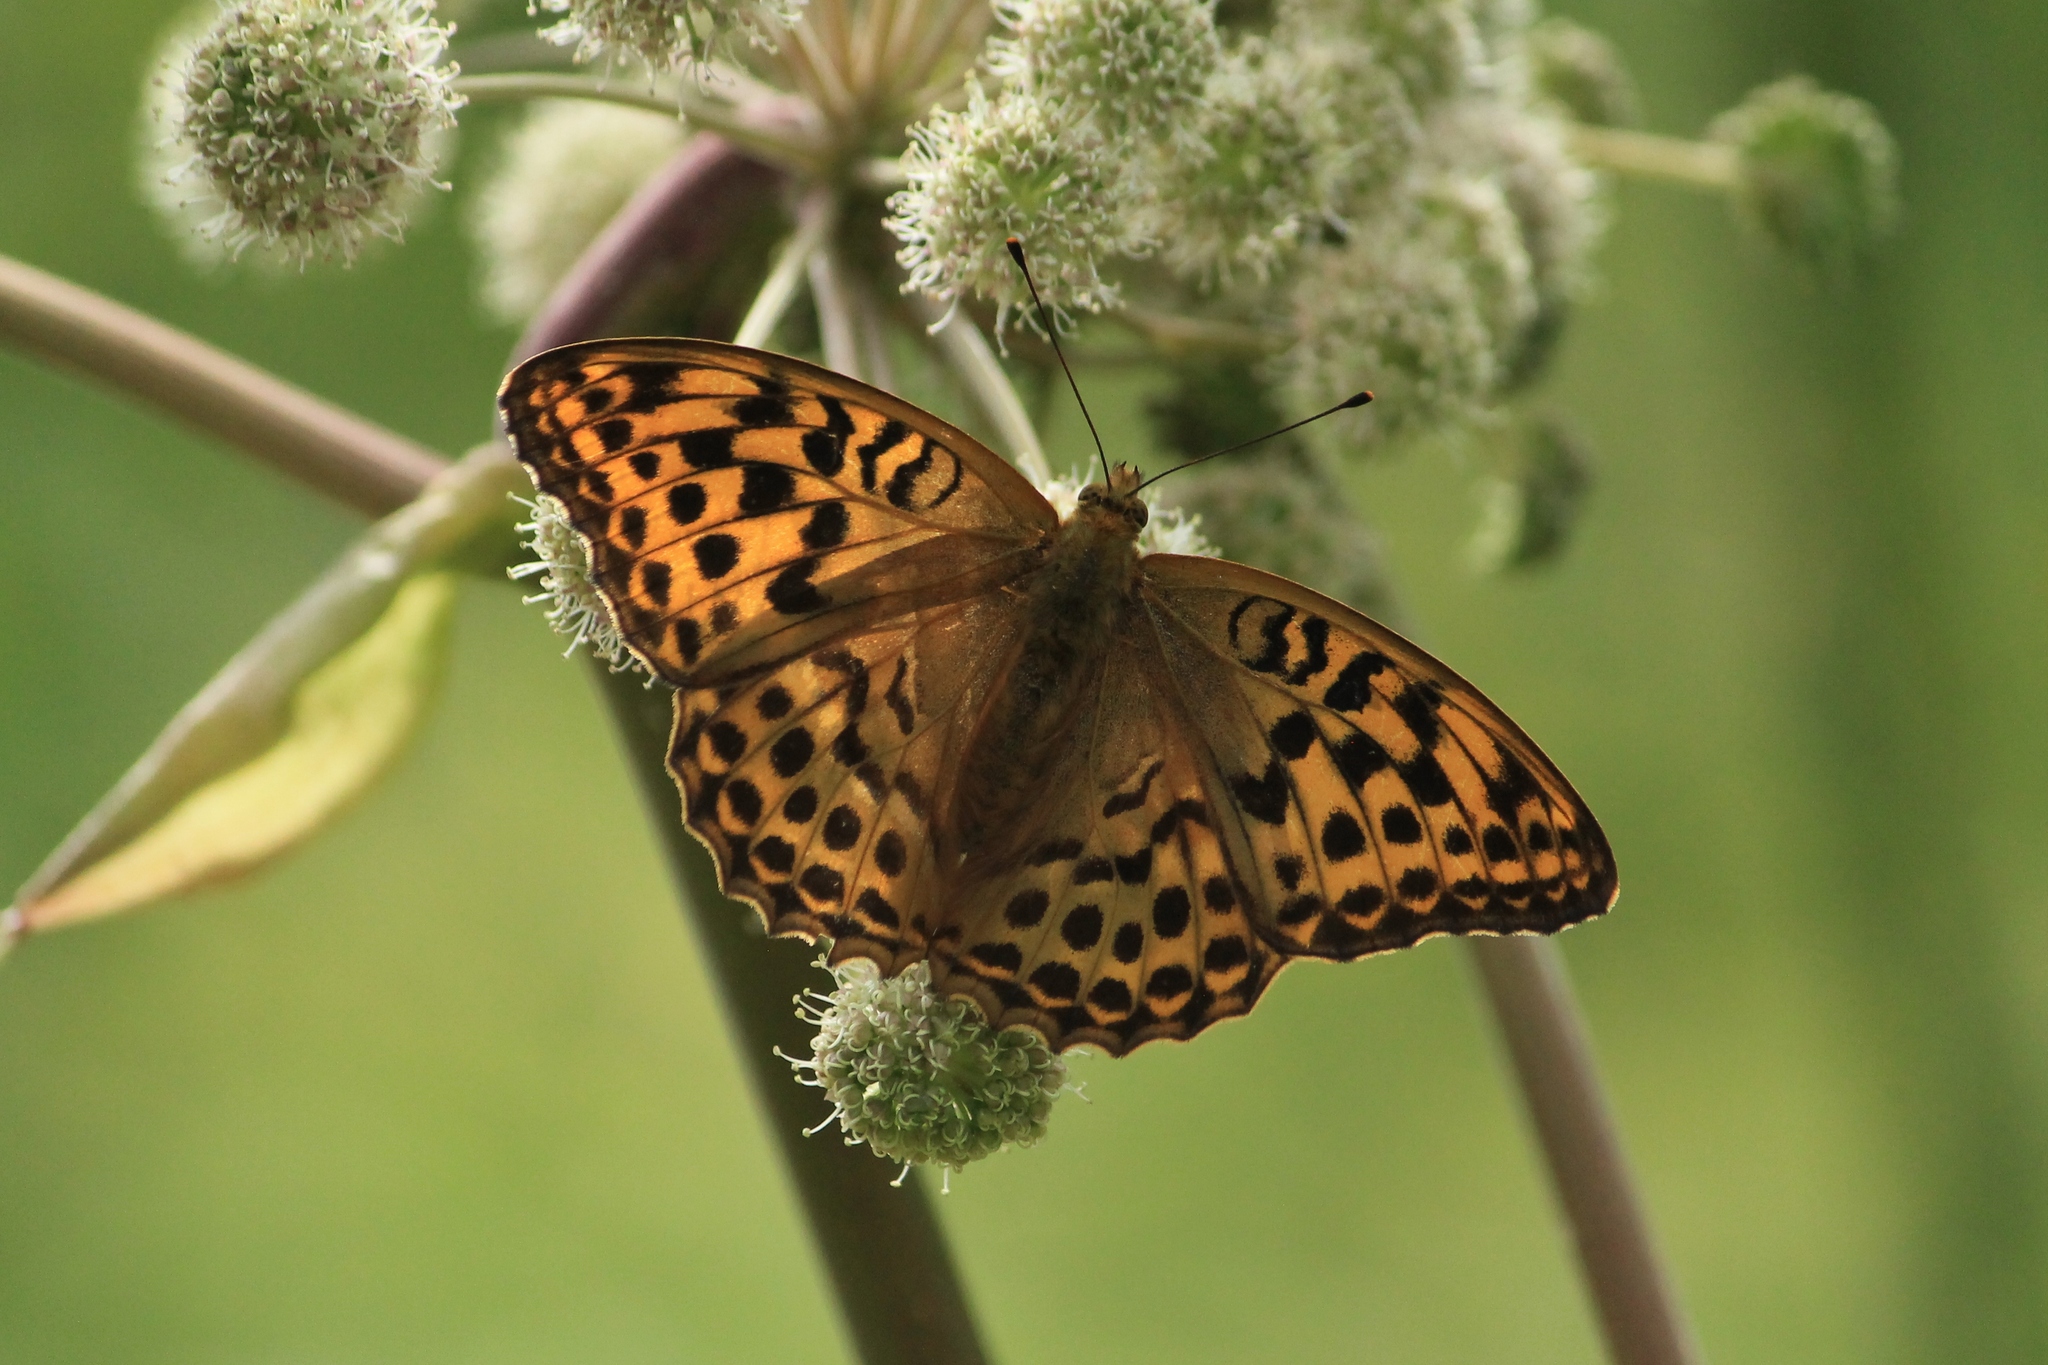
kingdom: Animalia
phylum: Arthropoda
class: Insecta
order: Lepidoptera
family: Nymphalidae
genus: Argynnis
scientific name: Argynnis paphia
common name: Silver-washed fritillary
